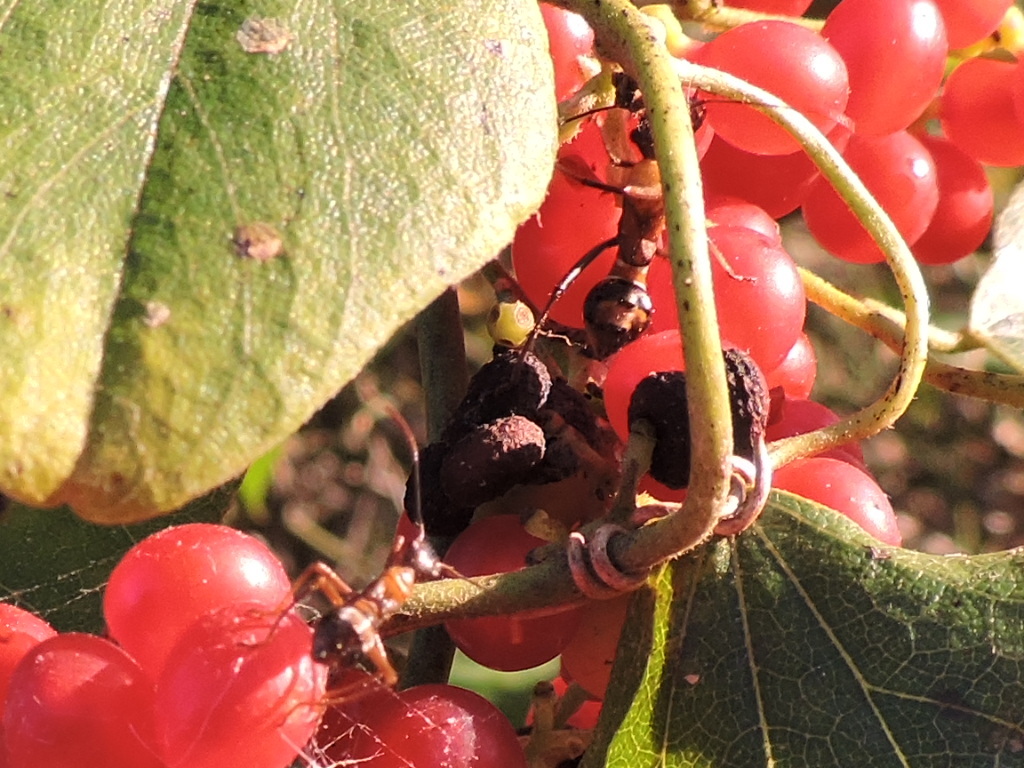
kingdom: Animalia
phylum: Arthropoda
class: Insecta
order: Hemiptera
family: Alydidae
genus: Hyalymenus
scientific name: Hyalymenus tarsatus
